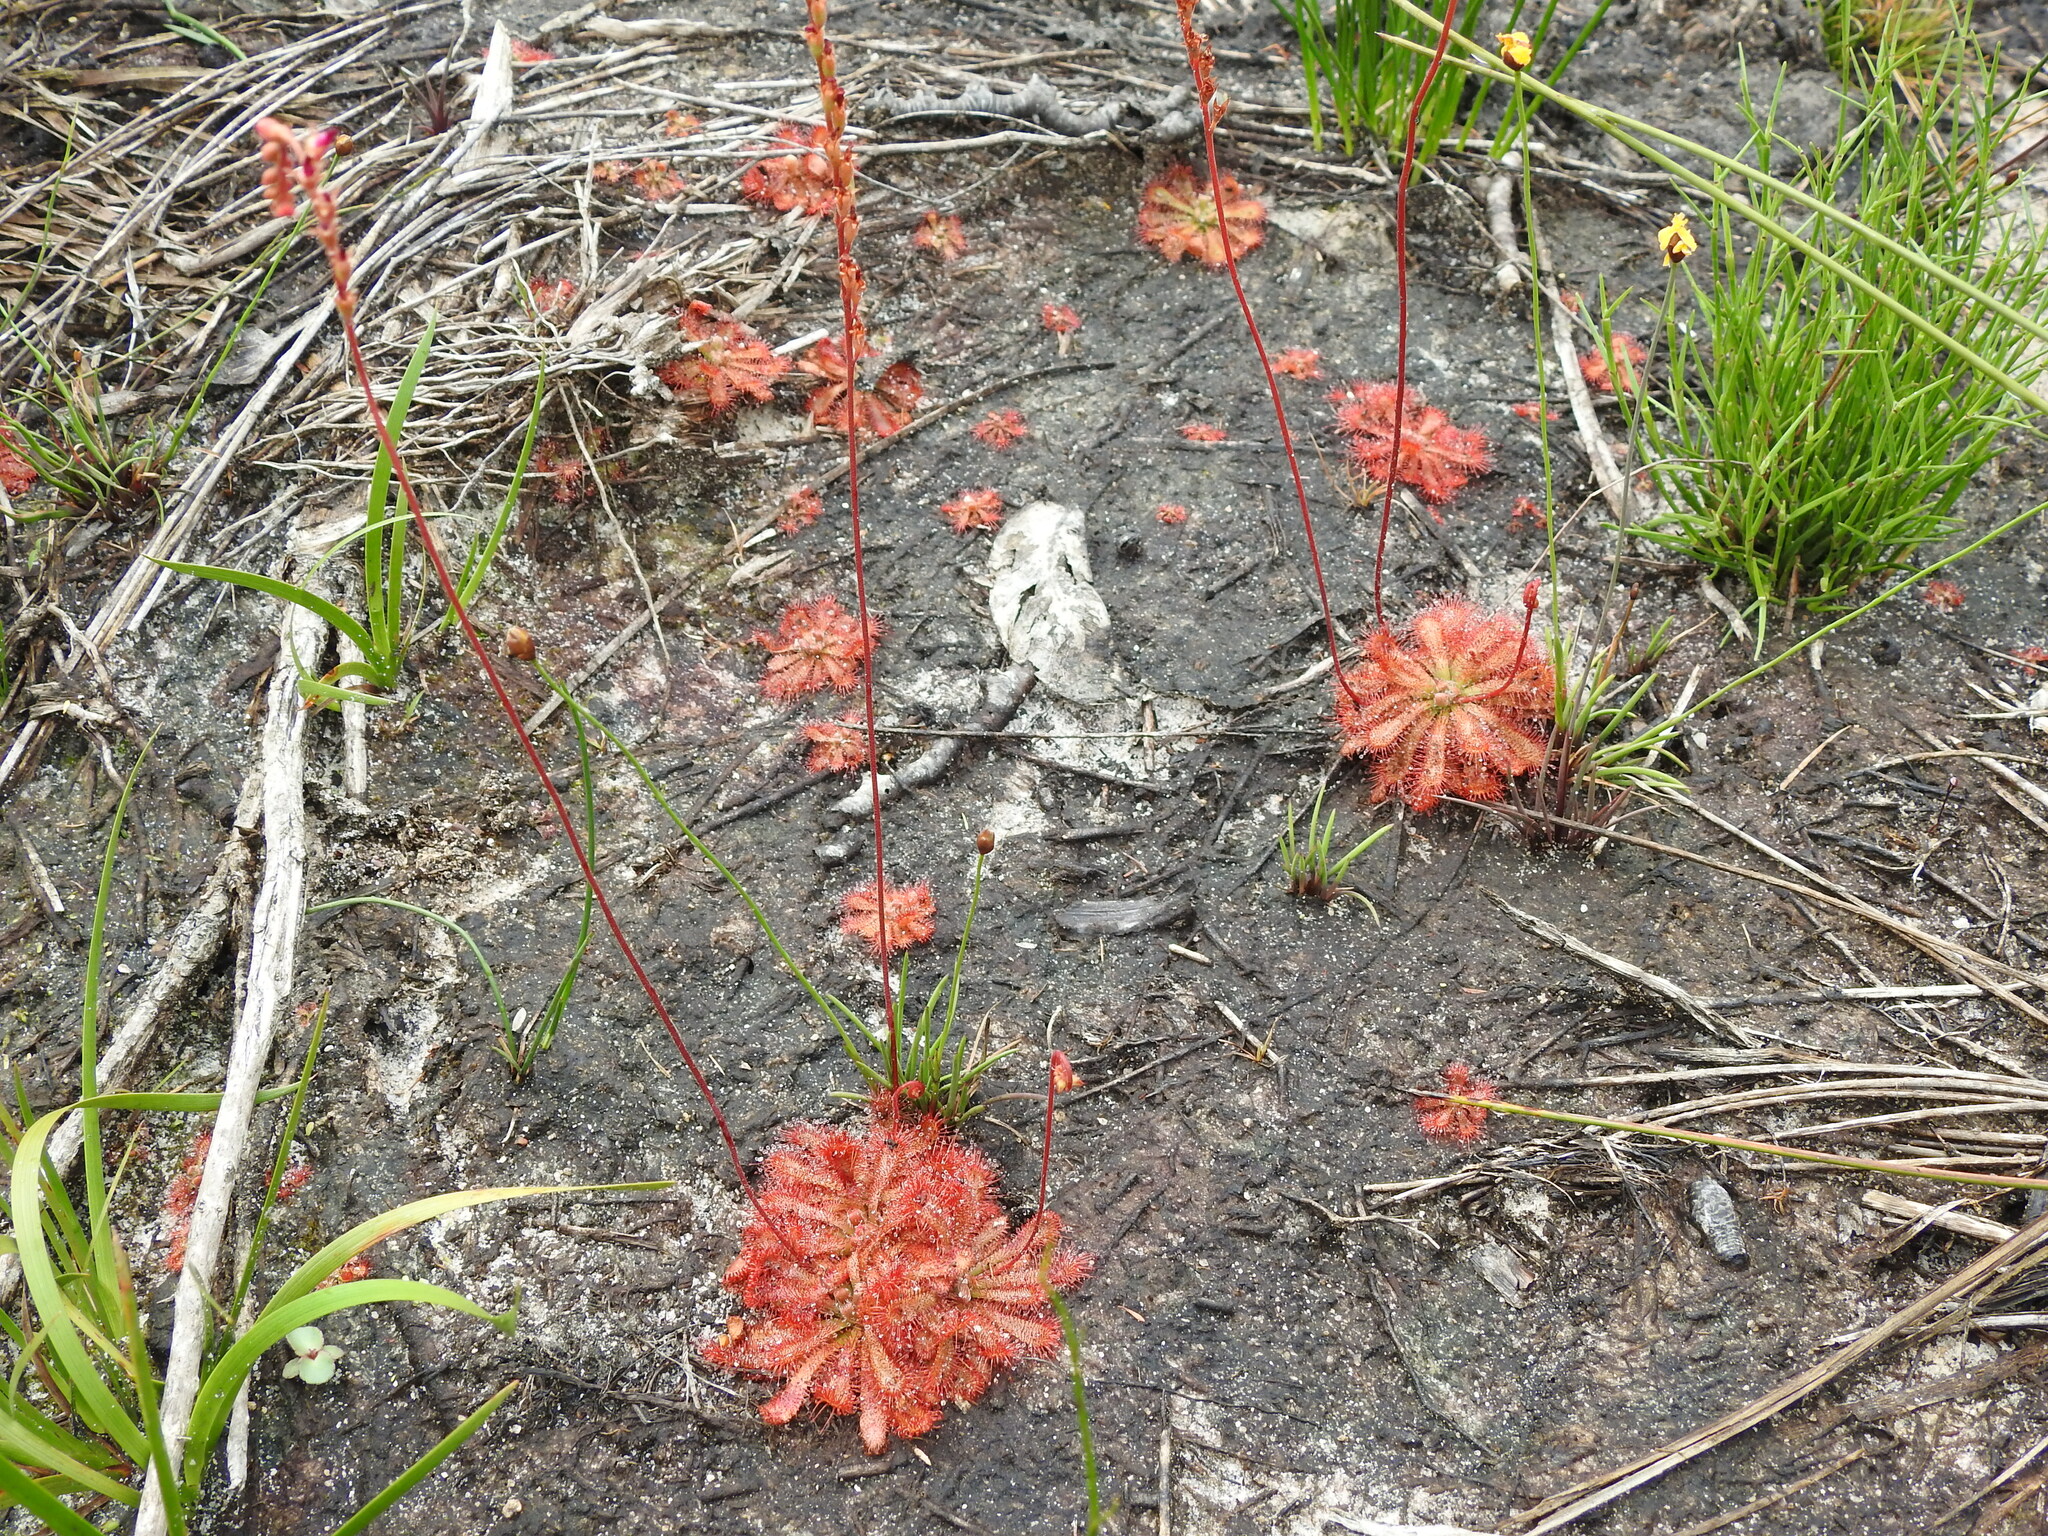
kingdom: Plantae
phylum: Tracheophyta
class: Magnoliopsida
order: Caryophyllales
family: Droseraceae
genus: Drosera
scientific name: Drosera spatulata
